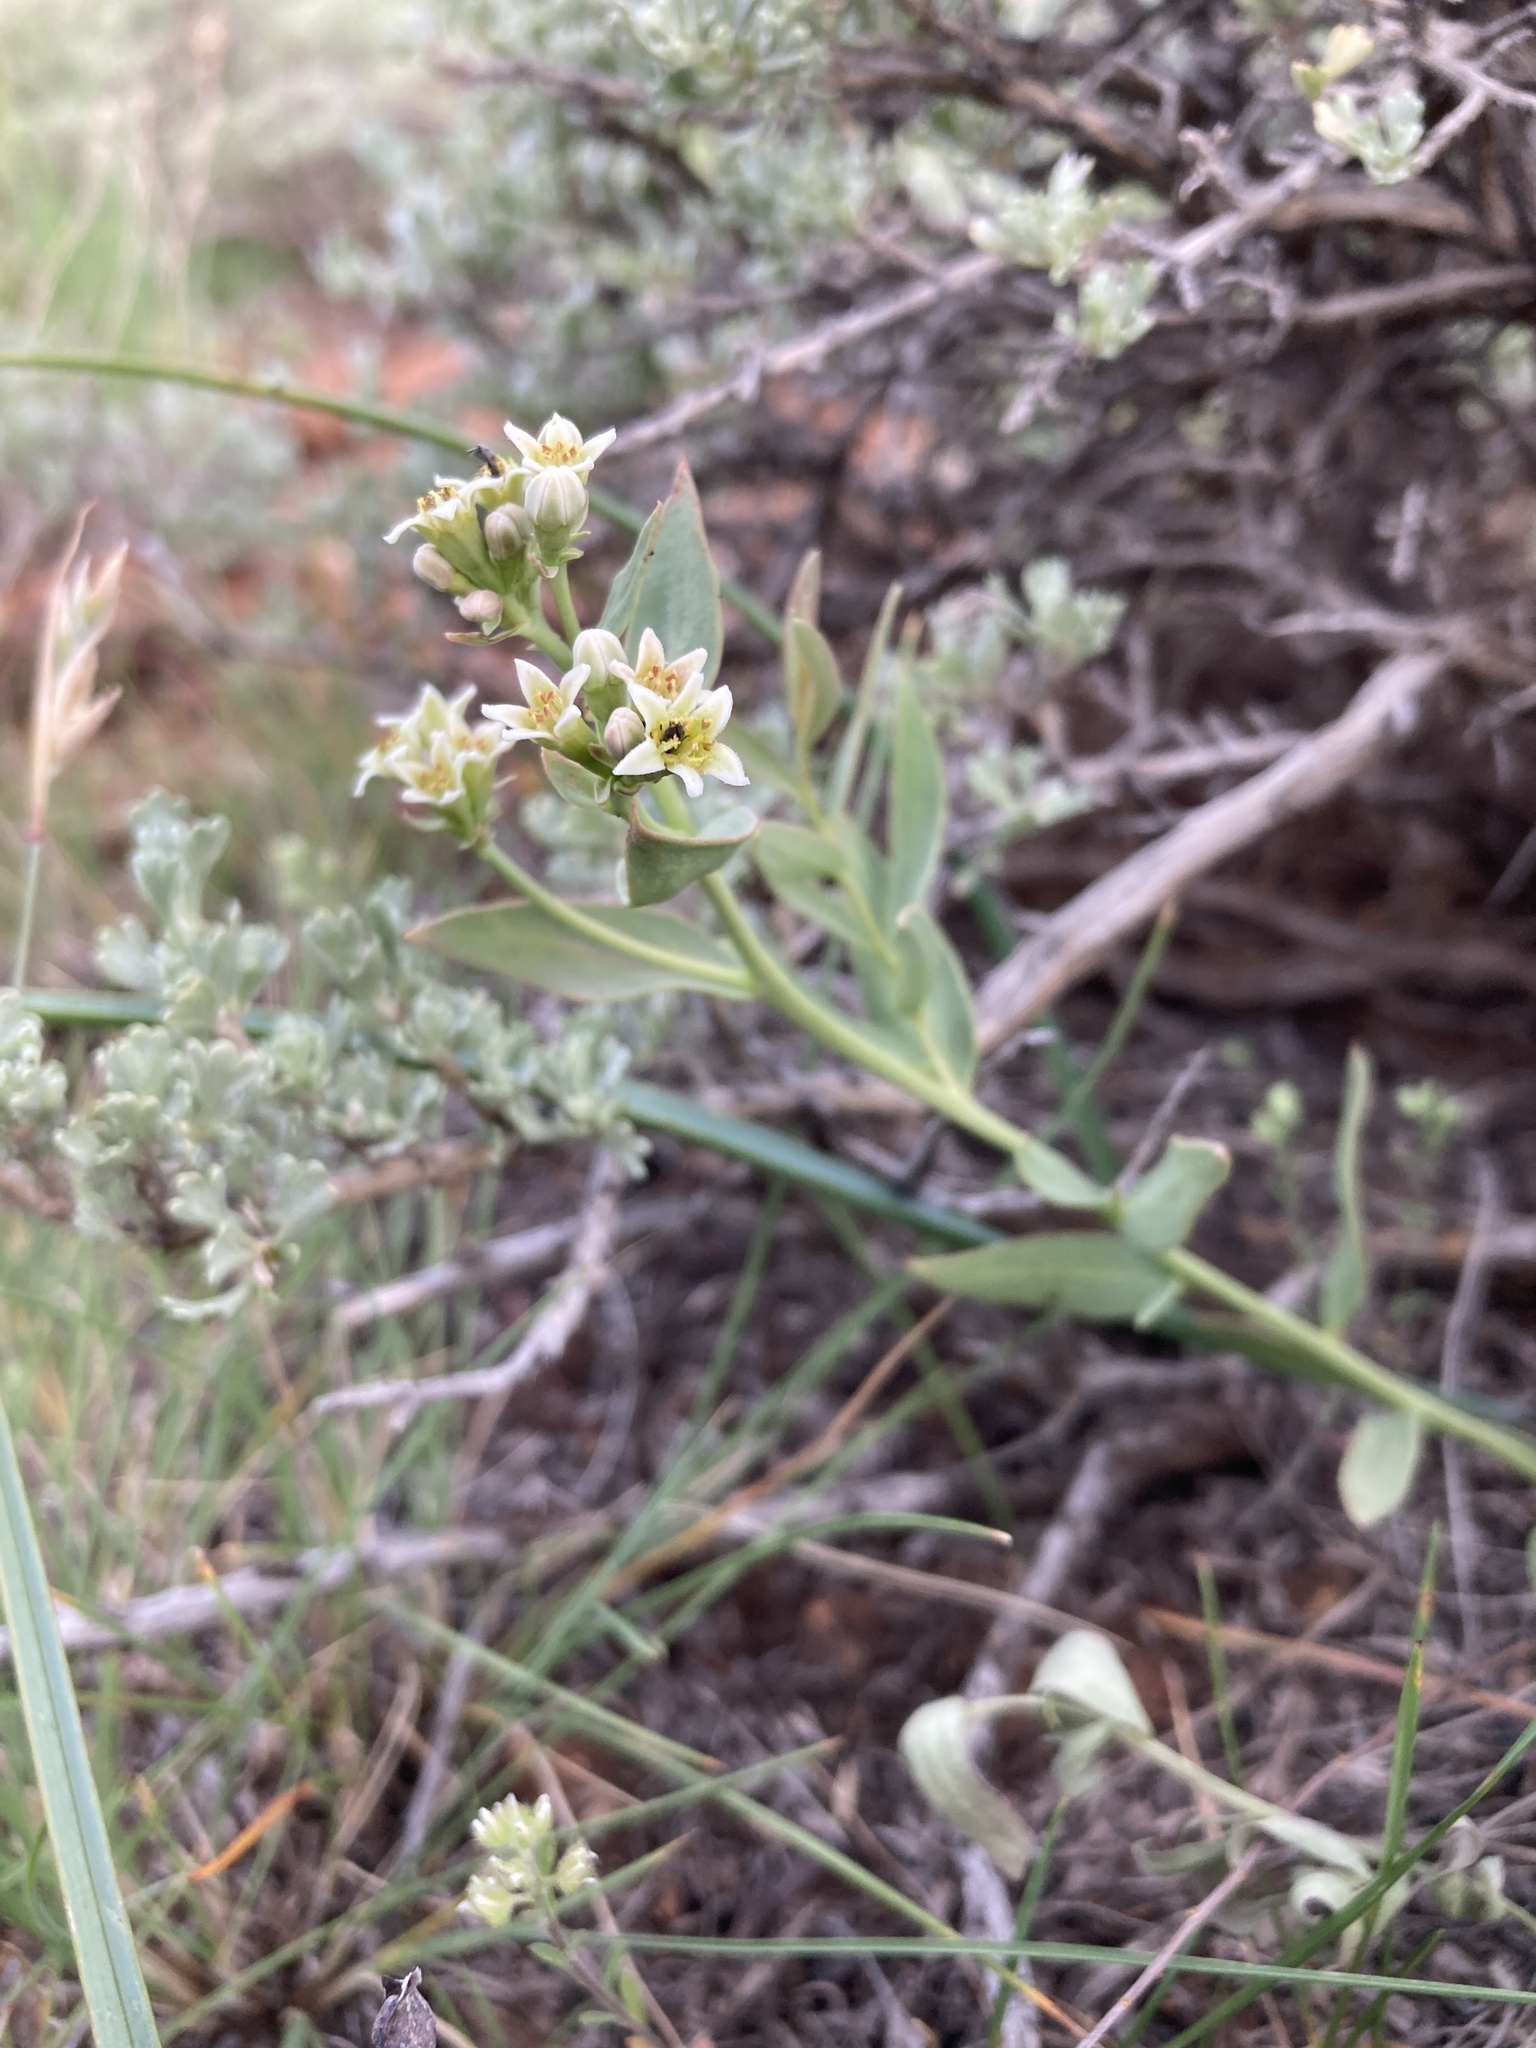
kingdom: Plantae
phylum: Tracheophyta
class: Magnoliopsida
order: Santalales
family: Comandraceae
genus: Comandra
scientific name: Comandra umbellata
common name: Bastard toadflax
